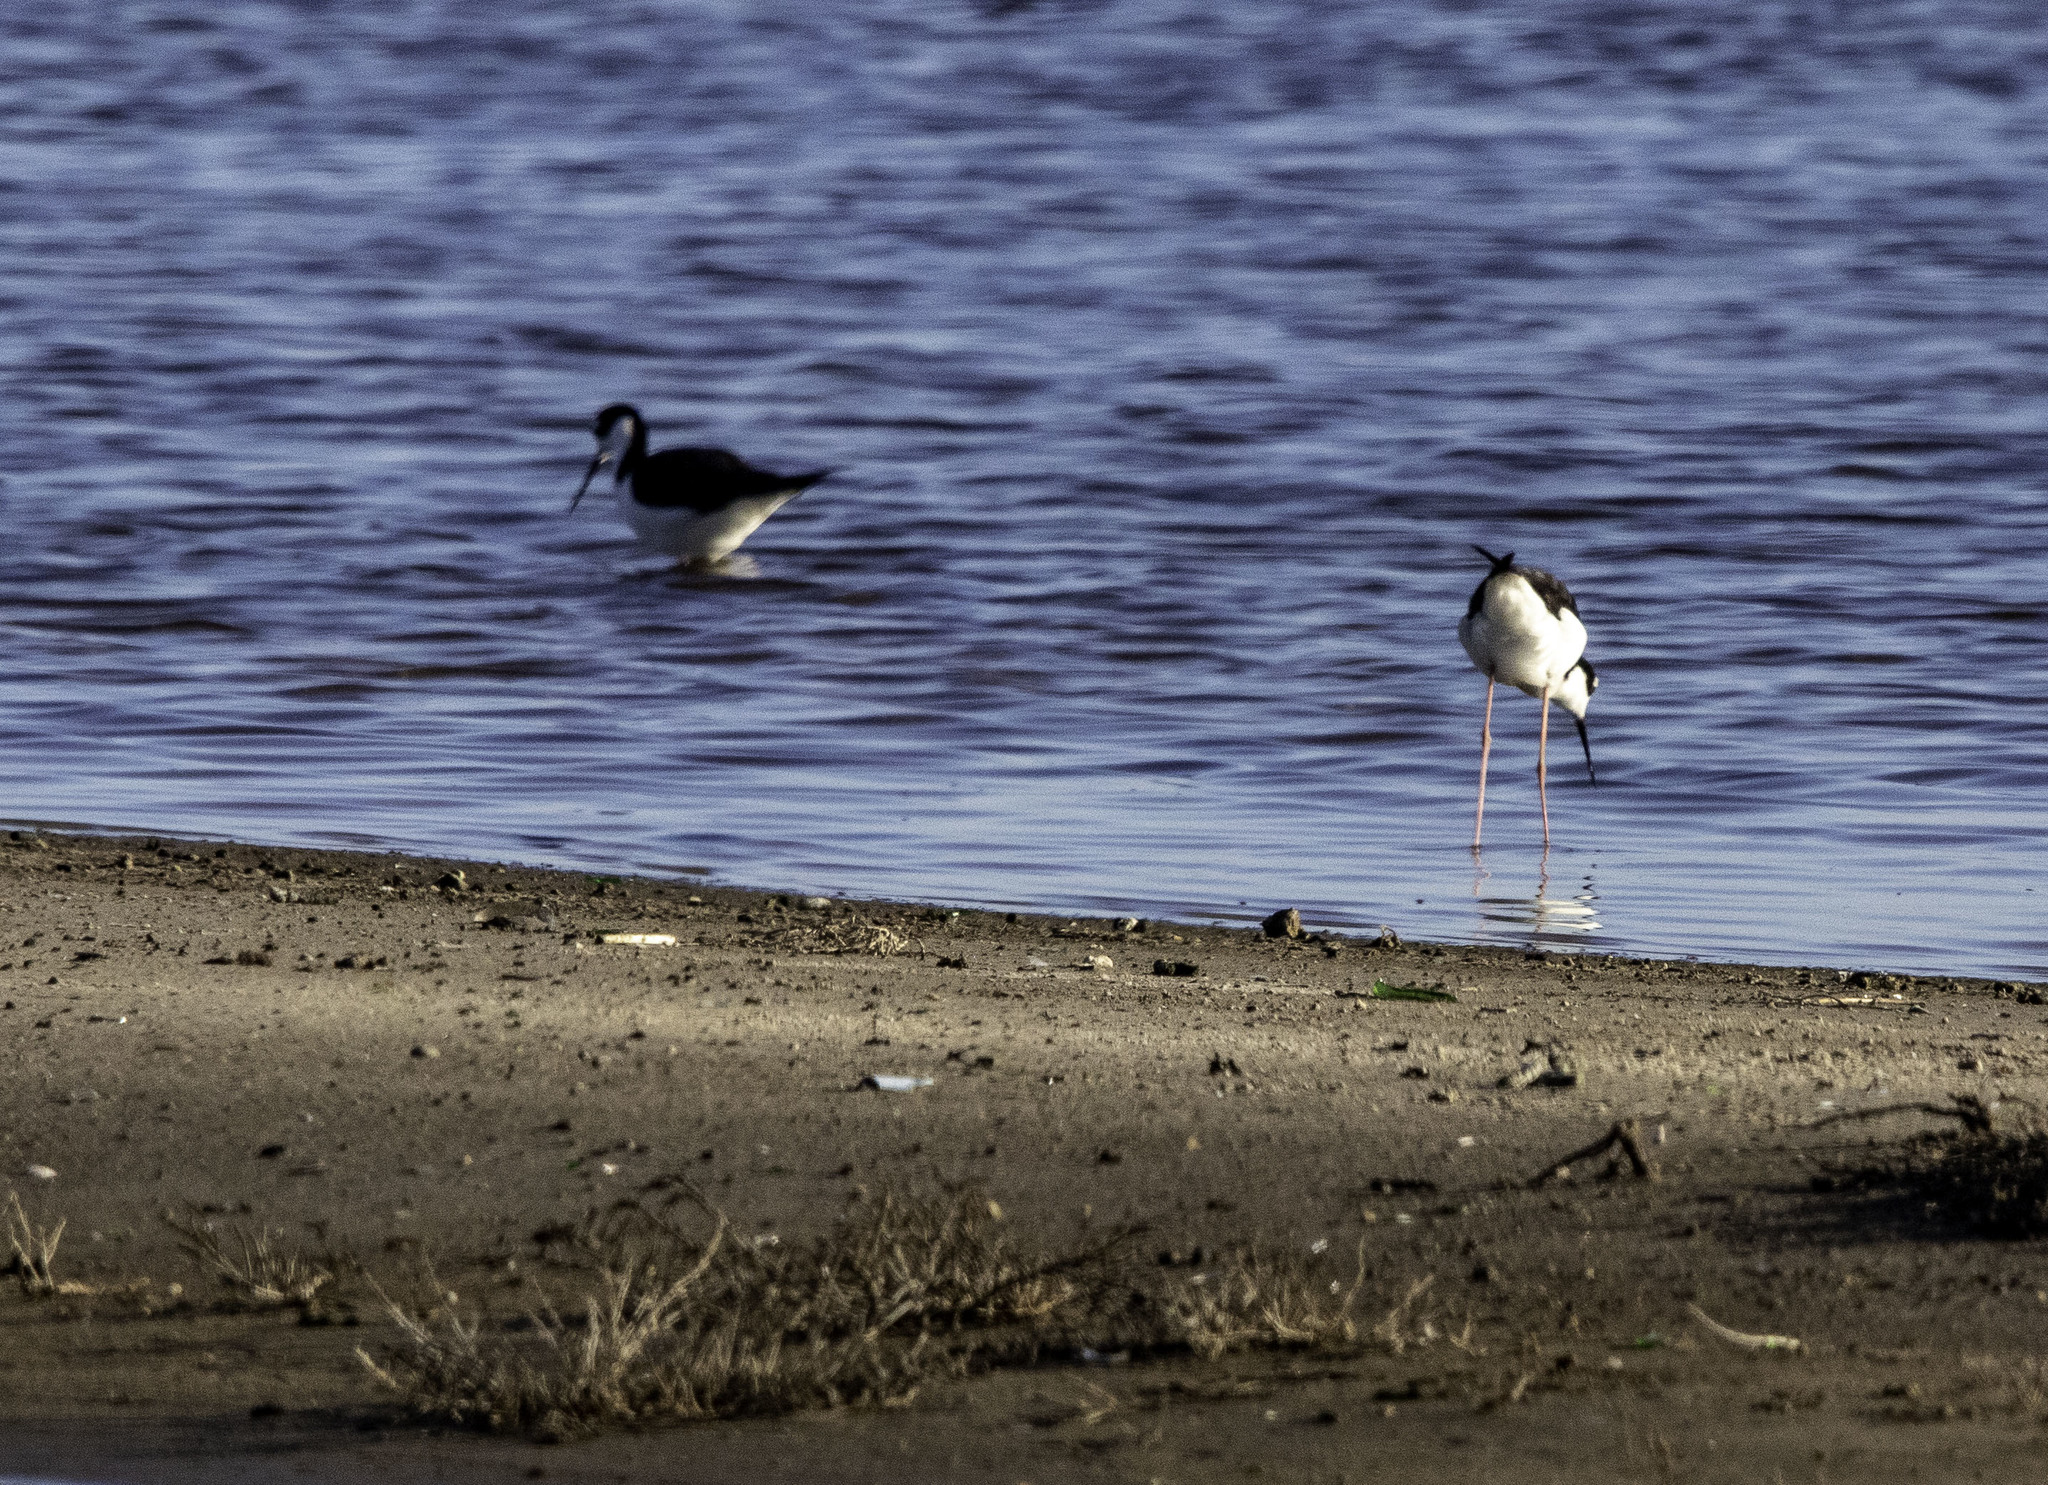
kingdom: Animalia
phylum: Chordata
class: Aves
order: Charadriiformes
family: Recurvirostridae
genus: Himantopus
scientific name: Himantopus mexicanus
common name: Black-necked stilt
